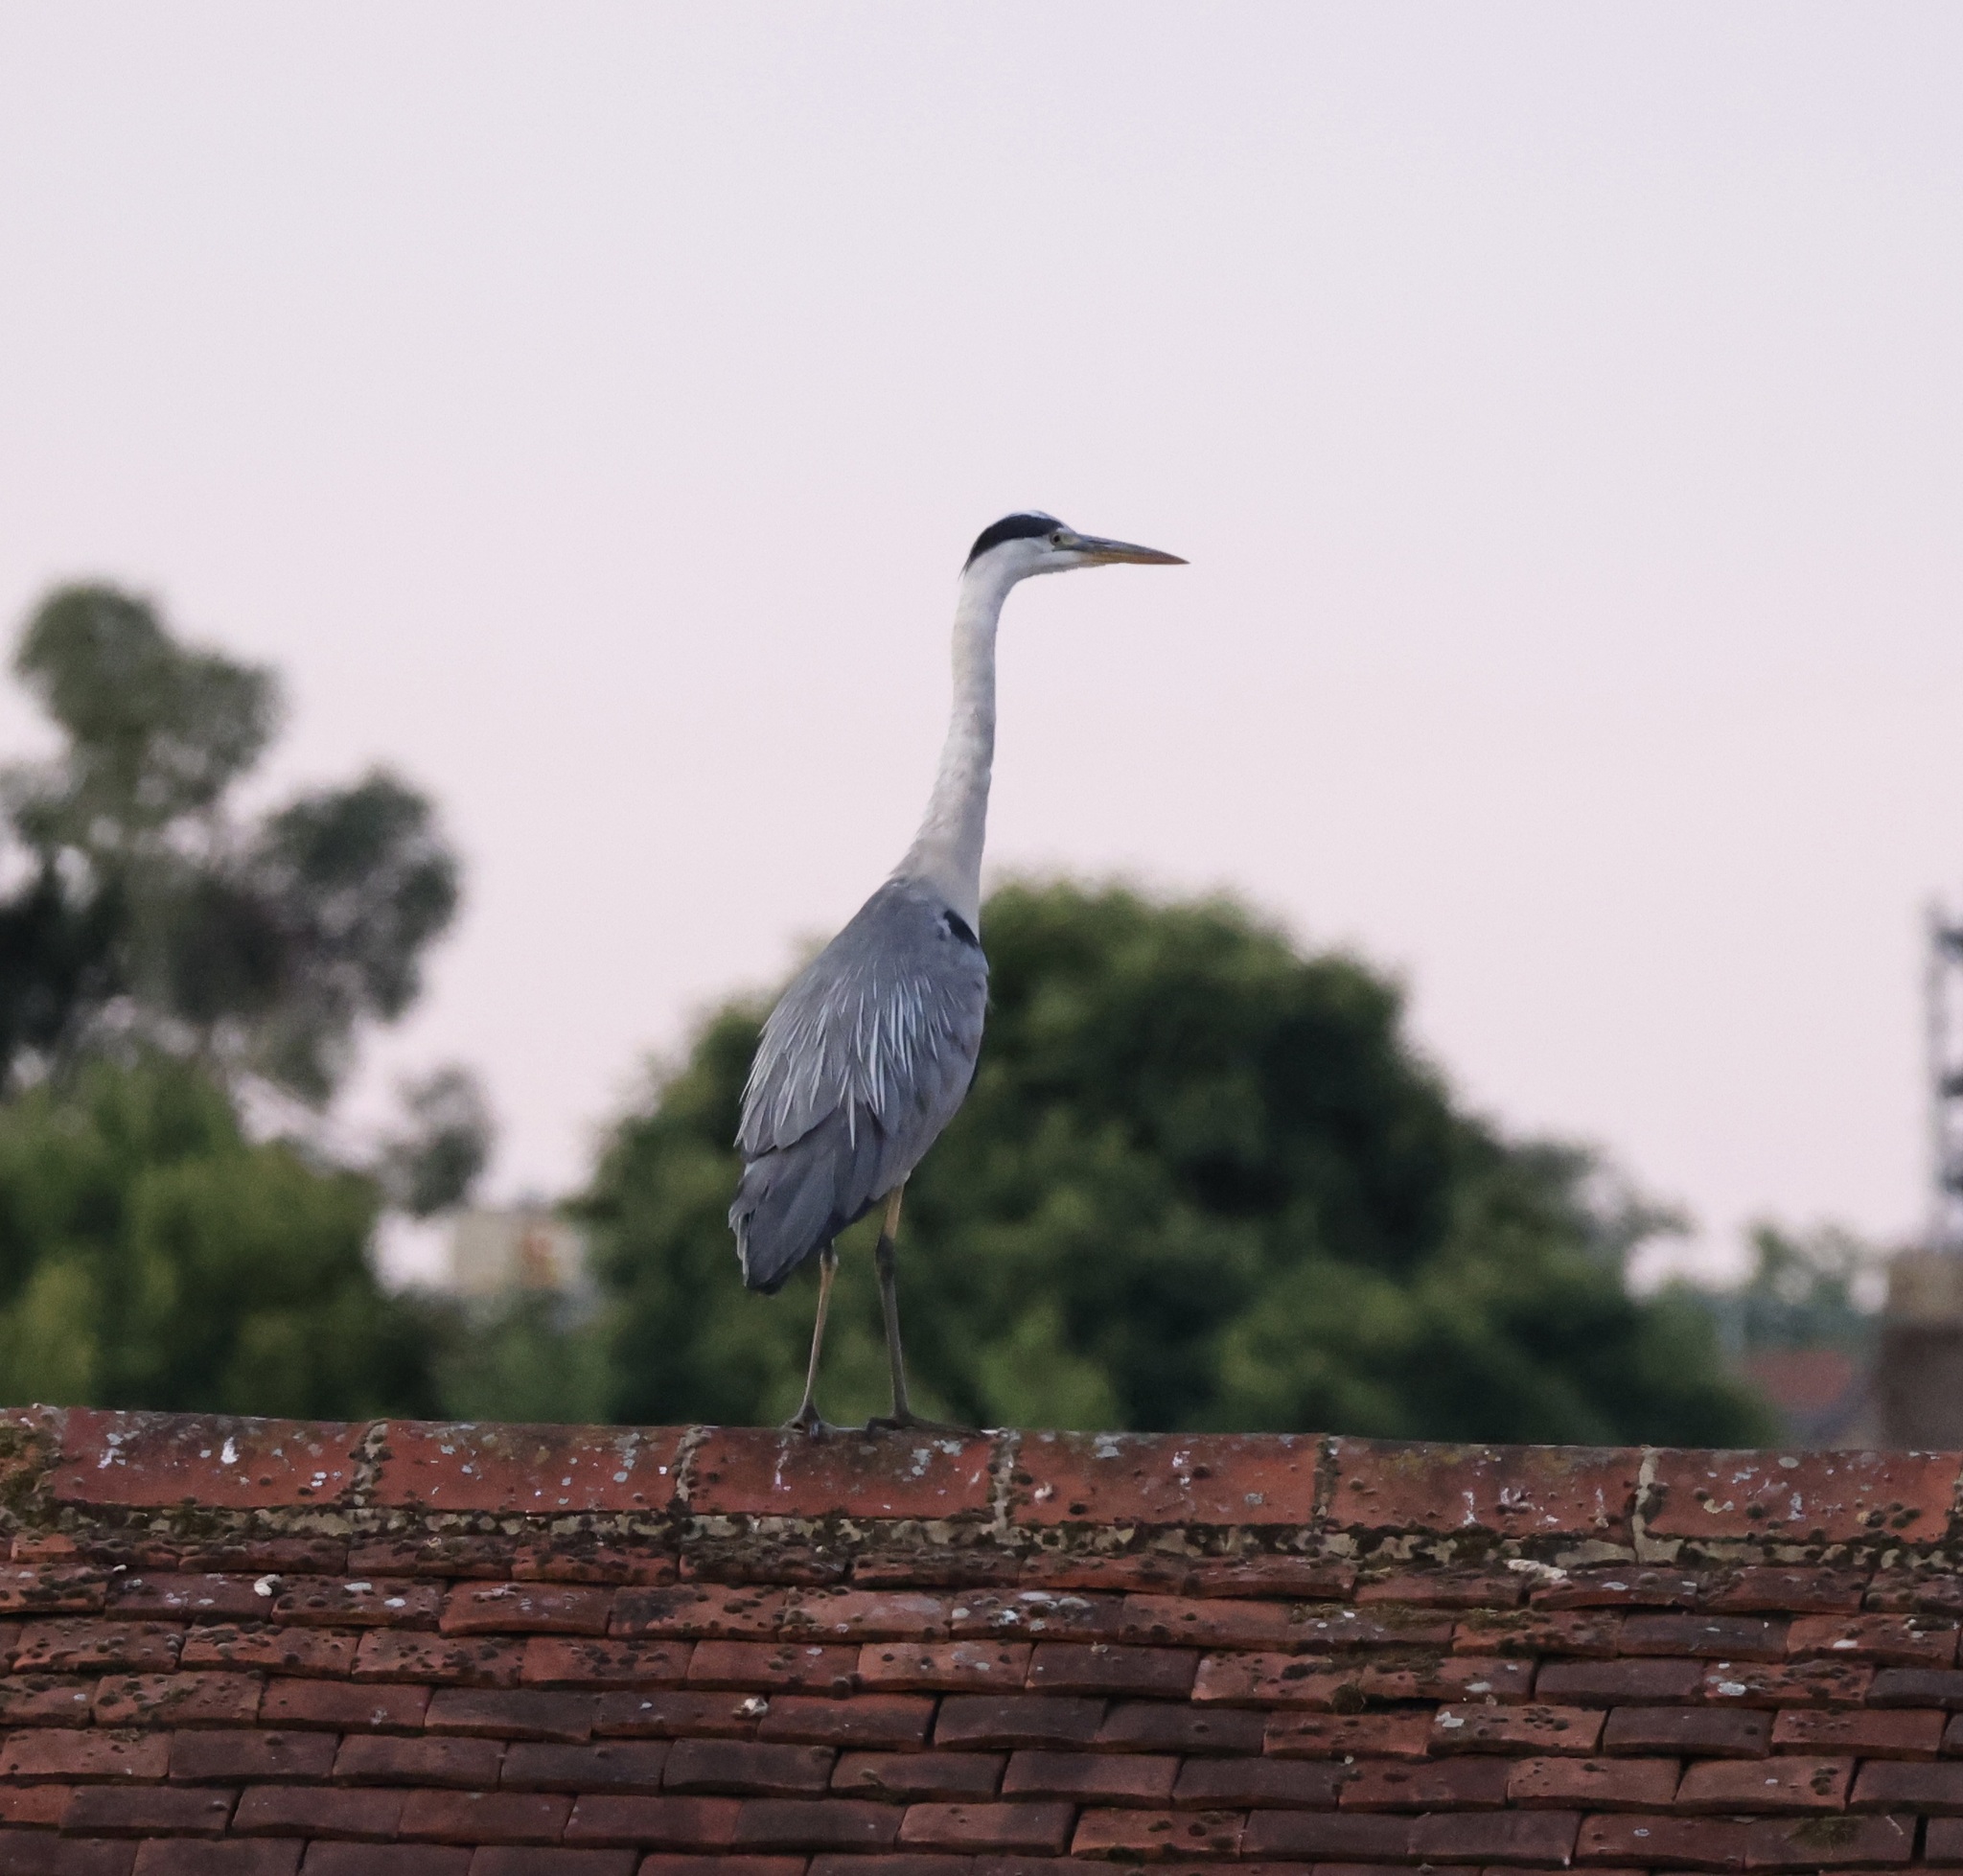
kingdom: Animalia
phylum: Chordata
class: Aves
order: Pelecaniformes
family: Ardeidae
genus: Ardea
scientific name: Ardea cinerea
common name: Grey heron
